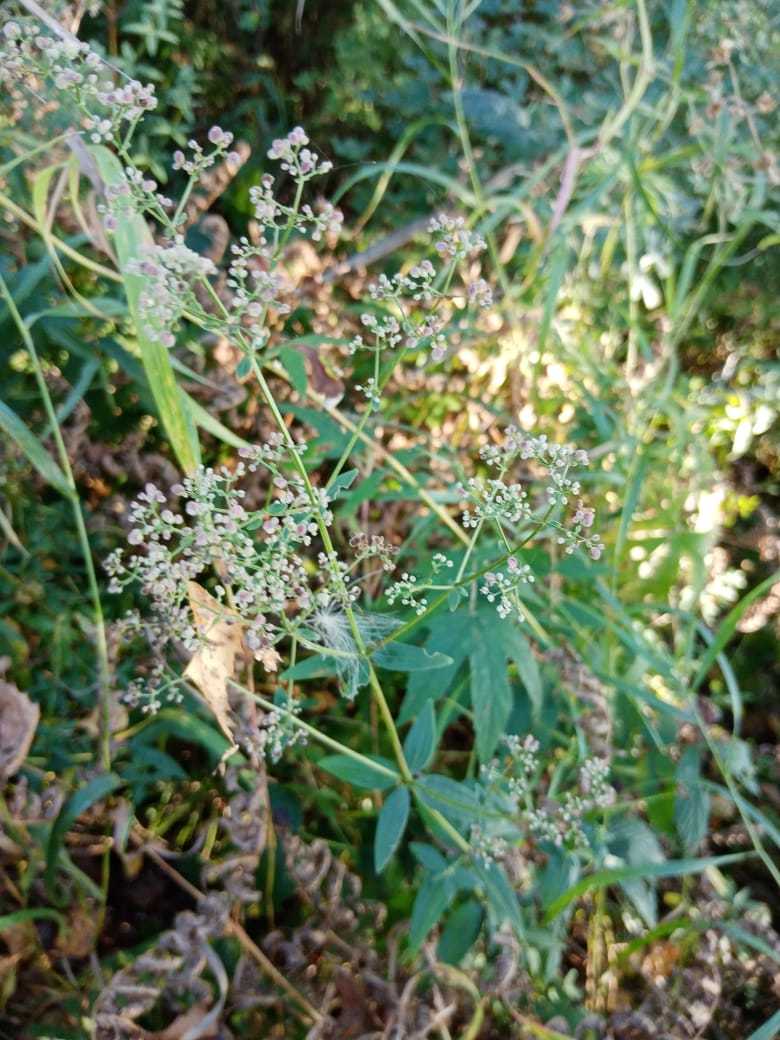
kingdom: Plantae
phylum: Tracheophyta
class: Magnoliopsida
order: Gentianales
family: Rubiaceae
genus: Galium
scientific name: Galium boreale
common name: Northern bedstraw
